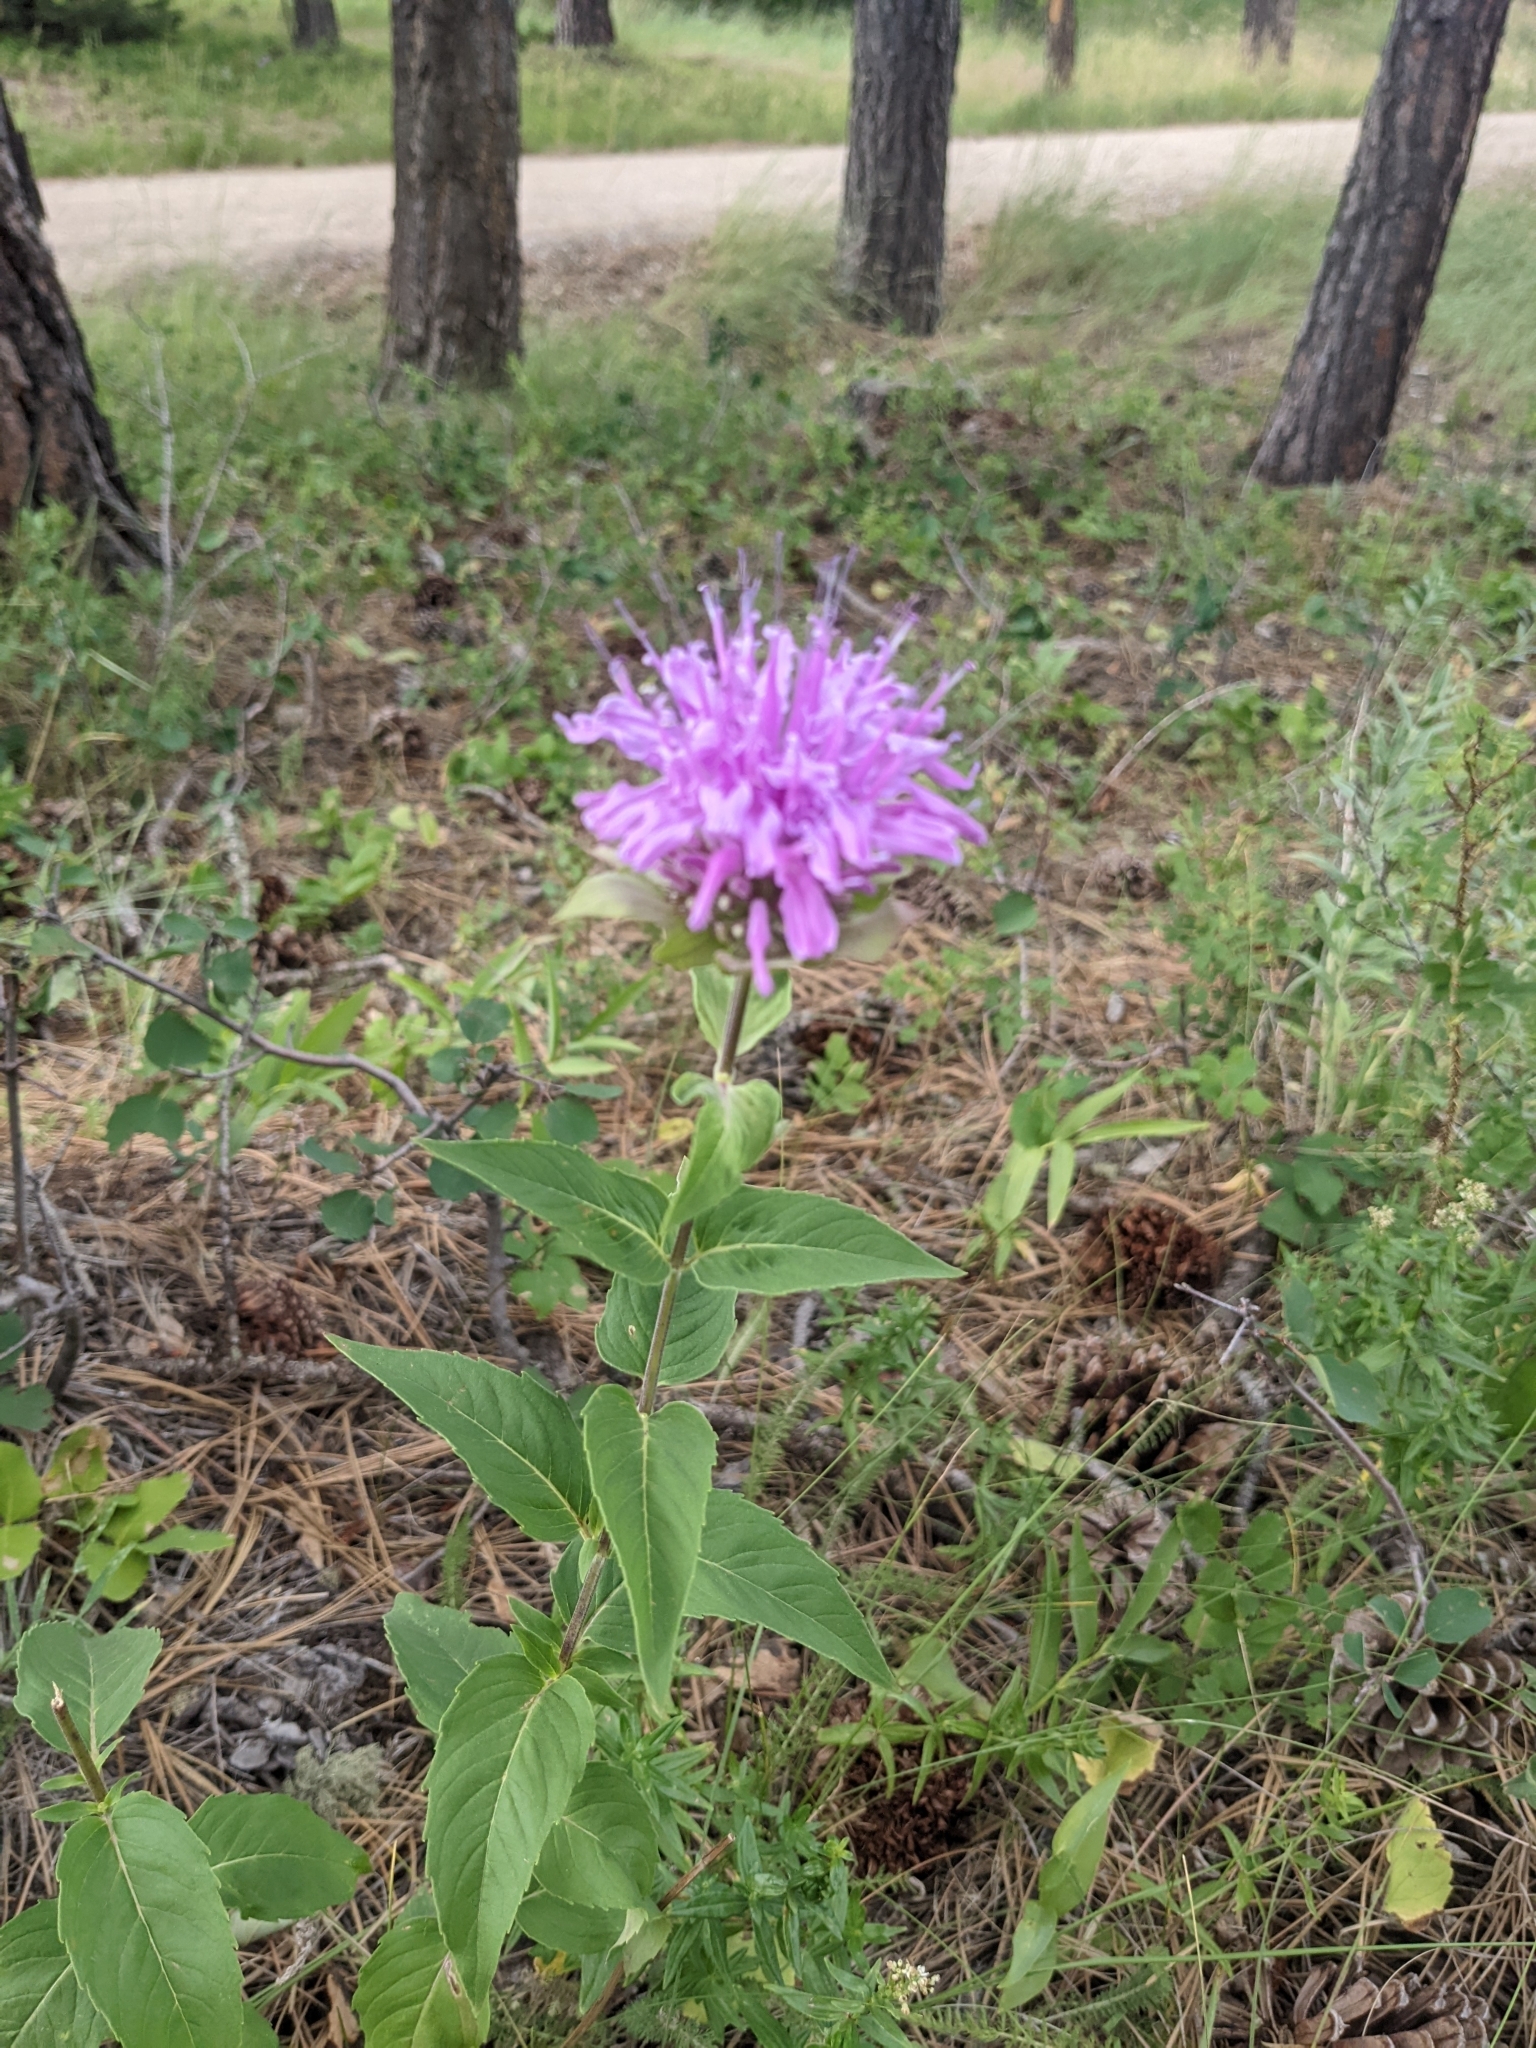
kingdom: Plantae
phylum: Tracheophyta
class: Magnoliopsida
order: Lamiales
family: Lamiaceae
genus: Monarda
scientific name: Monarda fistulosa
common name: Purple beebalm
